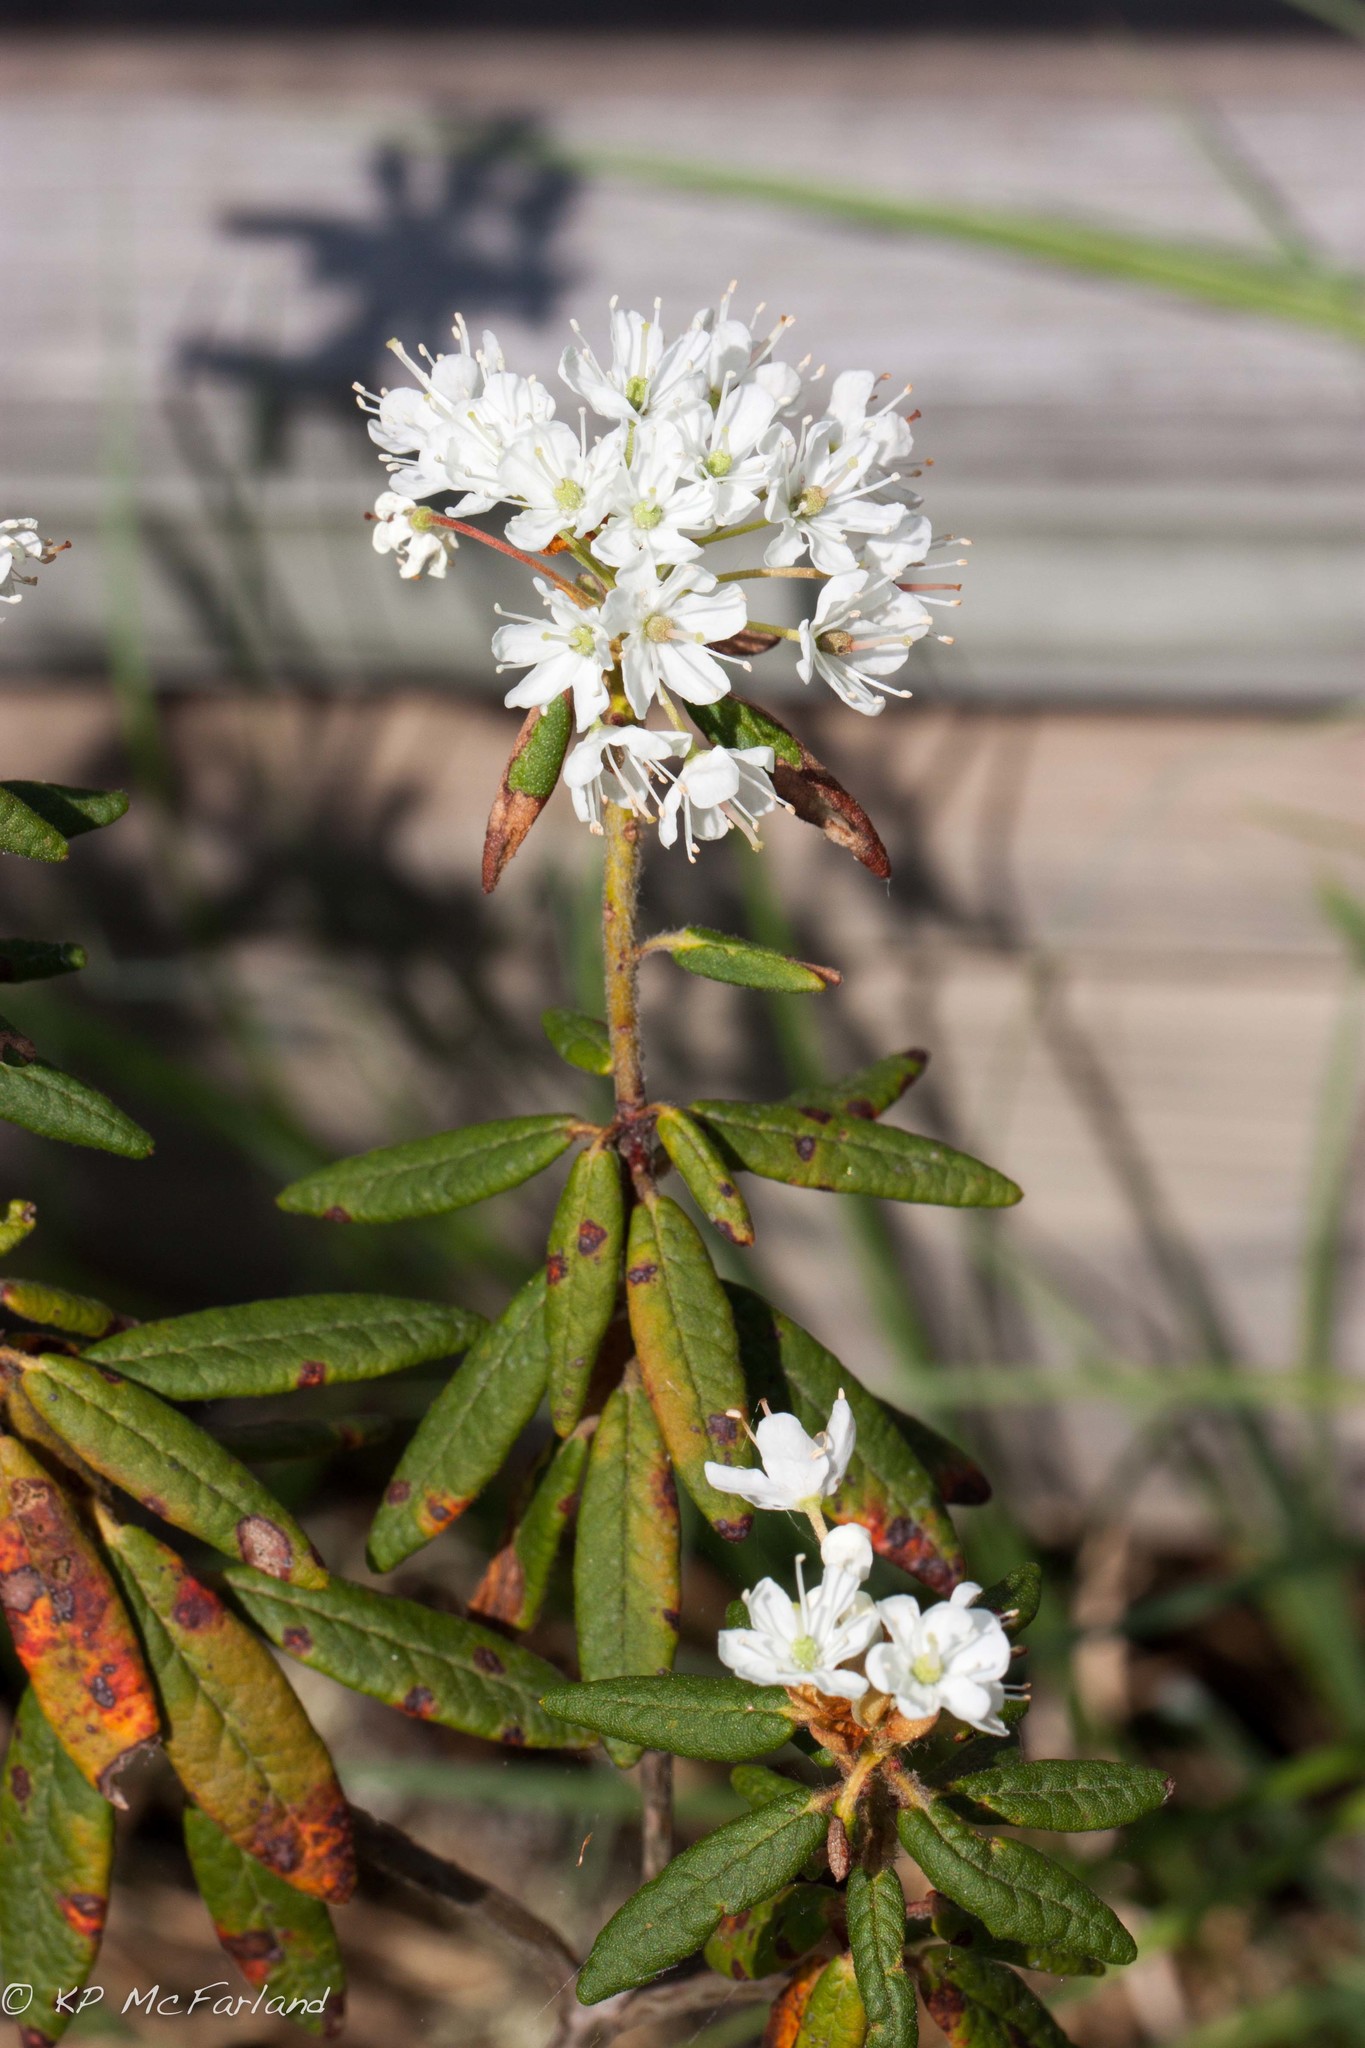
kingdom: Plantae
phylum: Tracheophyta
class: Magnoliopsida
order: Ericales
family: Ericaceae
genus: Rhododendron
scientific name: Rhododendron groenlandicum
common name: Bog labrador tea
